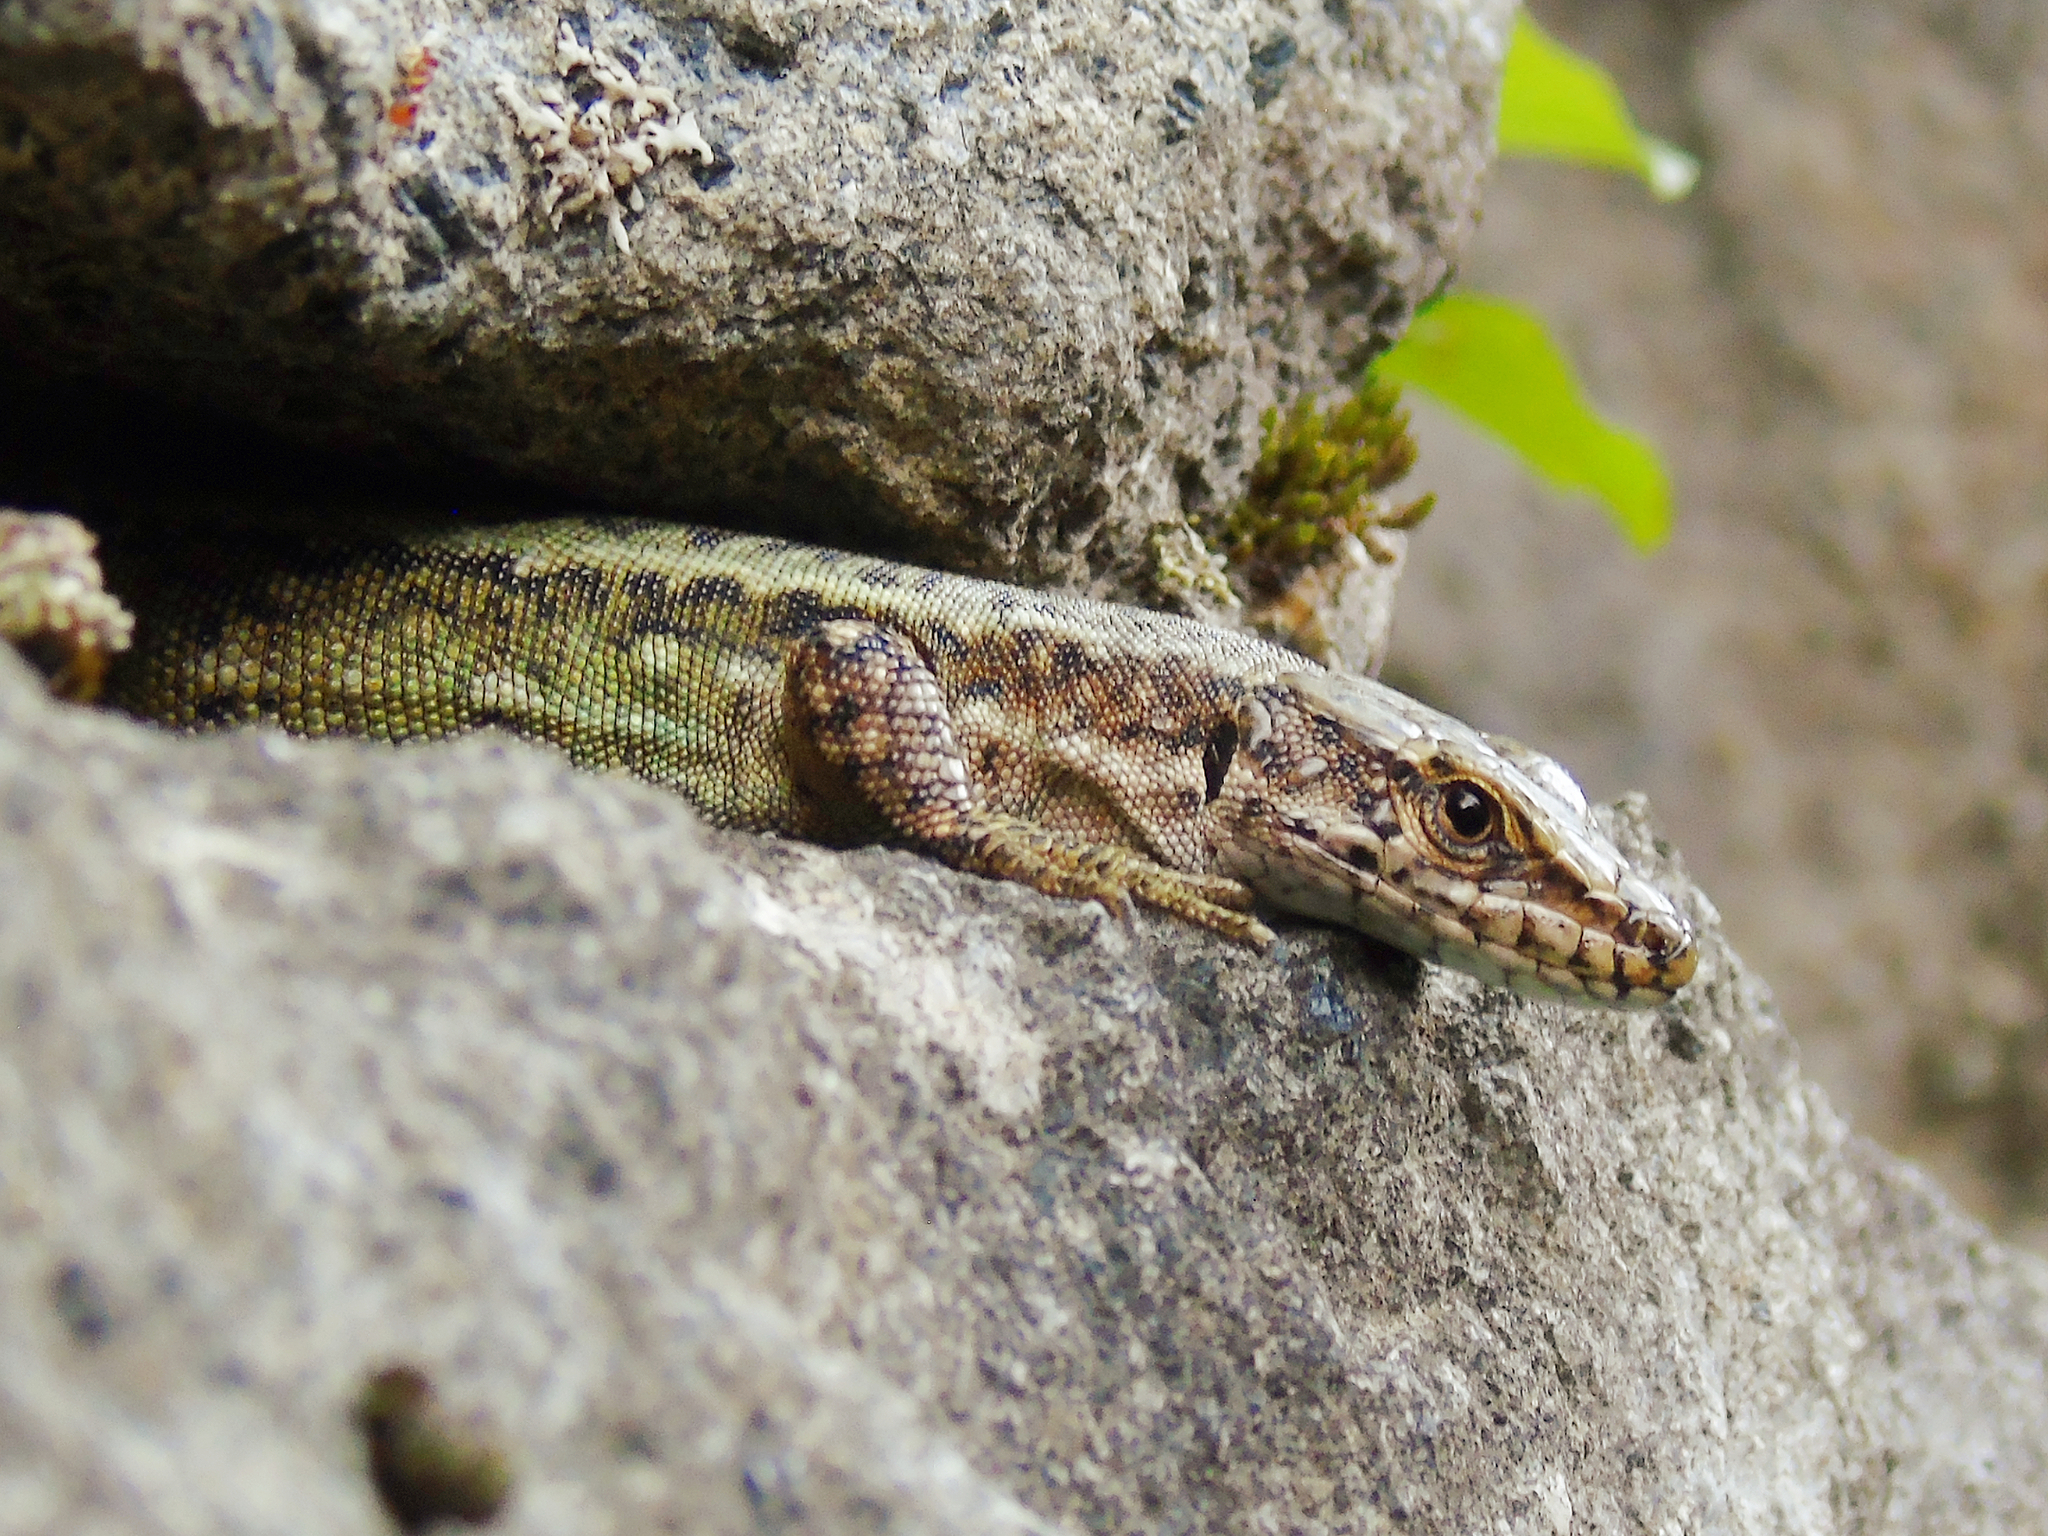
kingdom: Animalia
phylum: Chordata
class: Squamata
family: Lacertidae
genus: Darevskia
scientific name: Darevskia rudis
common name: Spiny-tailed lizard
